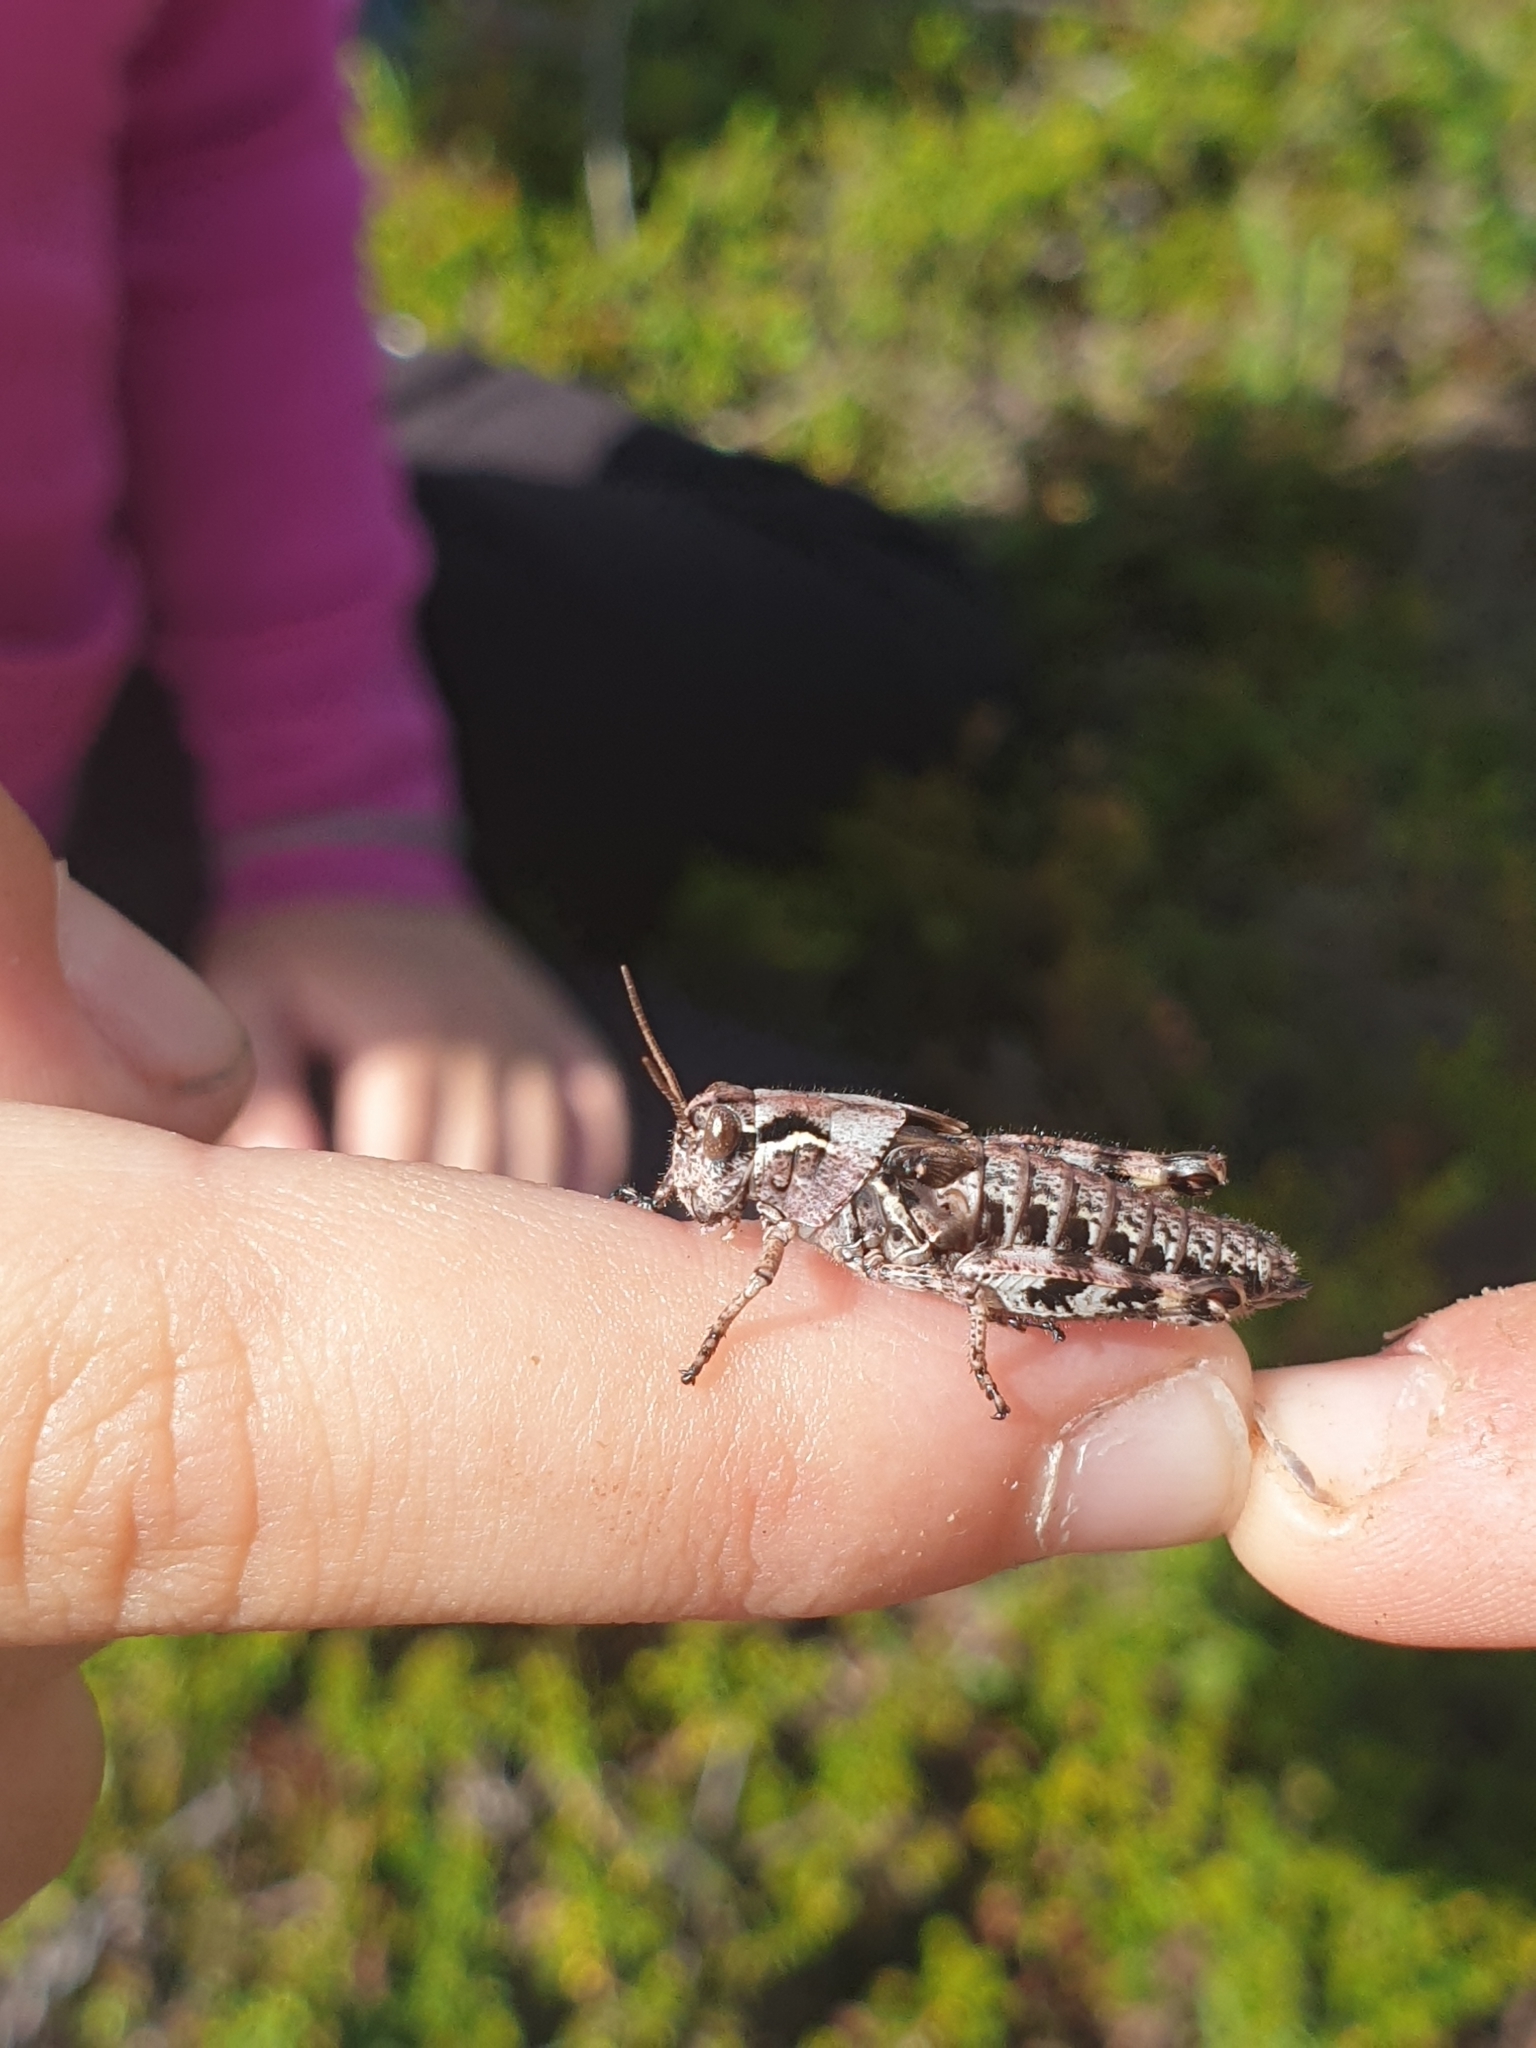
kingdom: Animalia
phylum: Arthropoda
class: Insecta
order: Orthoptera
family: Acrididae
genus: Bohemanella
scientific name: Bohemanella frigida
